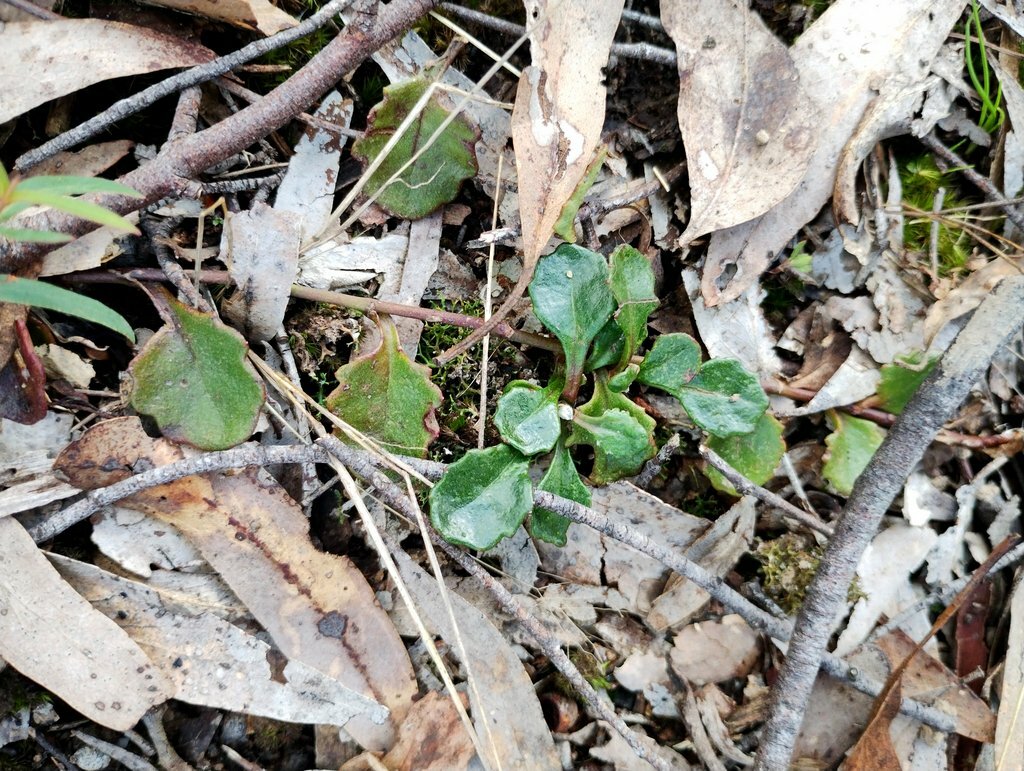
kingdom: Plantae
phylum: Tracheophyta
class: Magnoliopsida
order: Asterales
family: Goodeniaceae
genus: Goodenia
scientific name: Goodenia lanata
